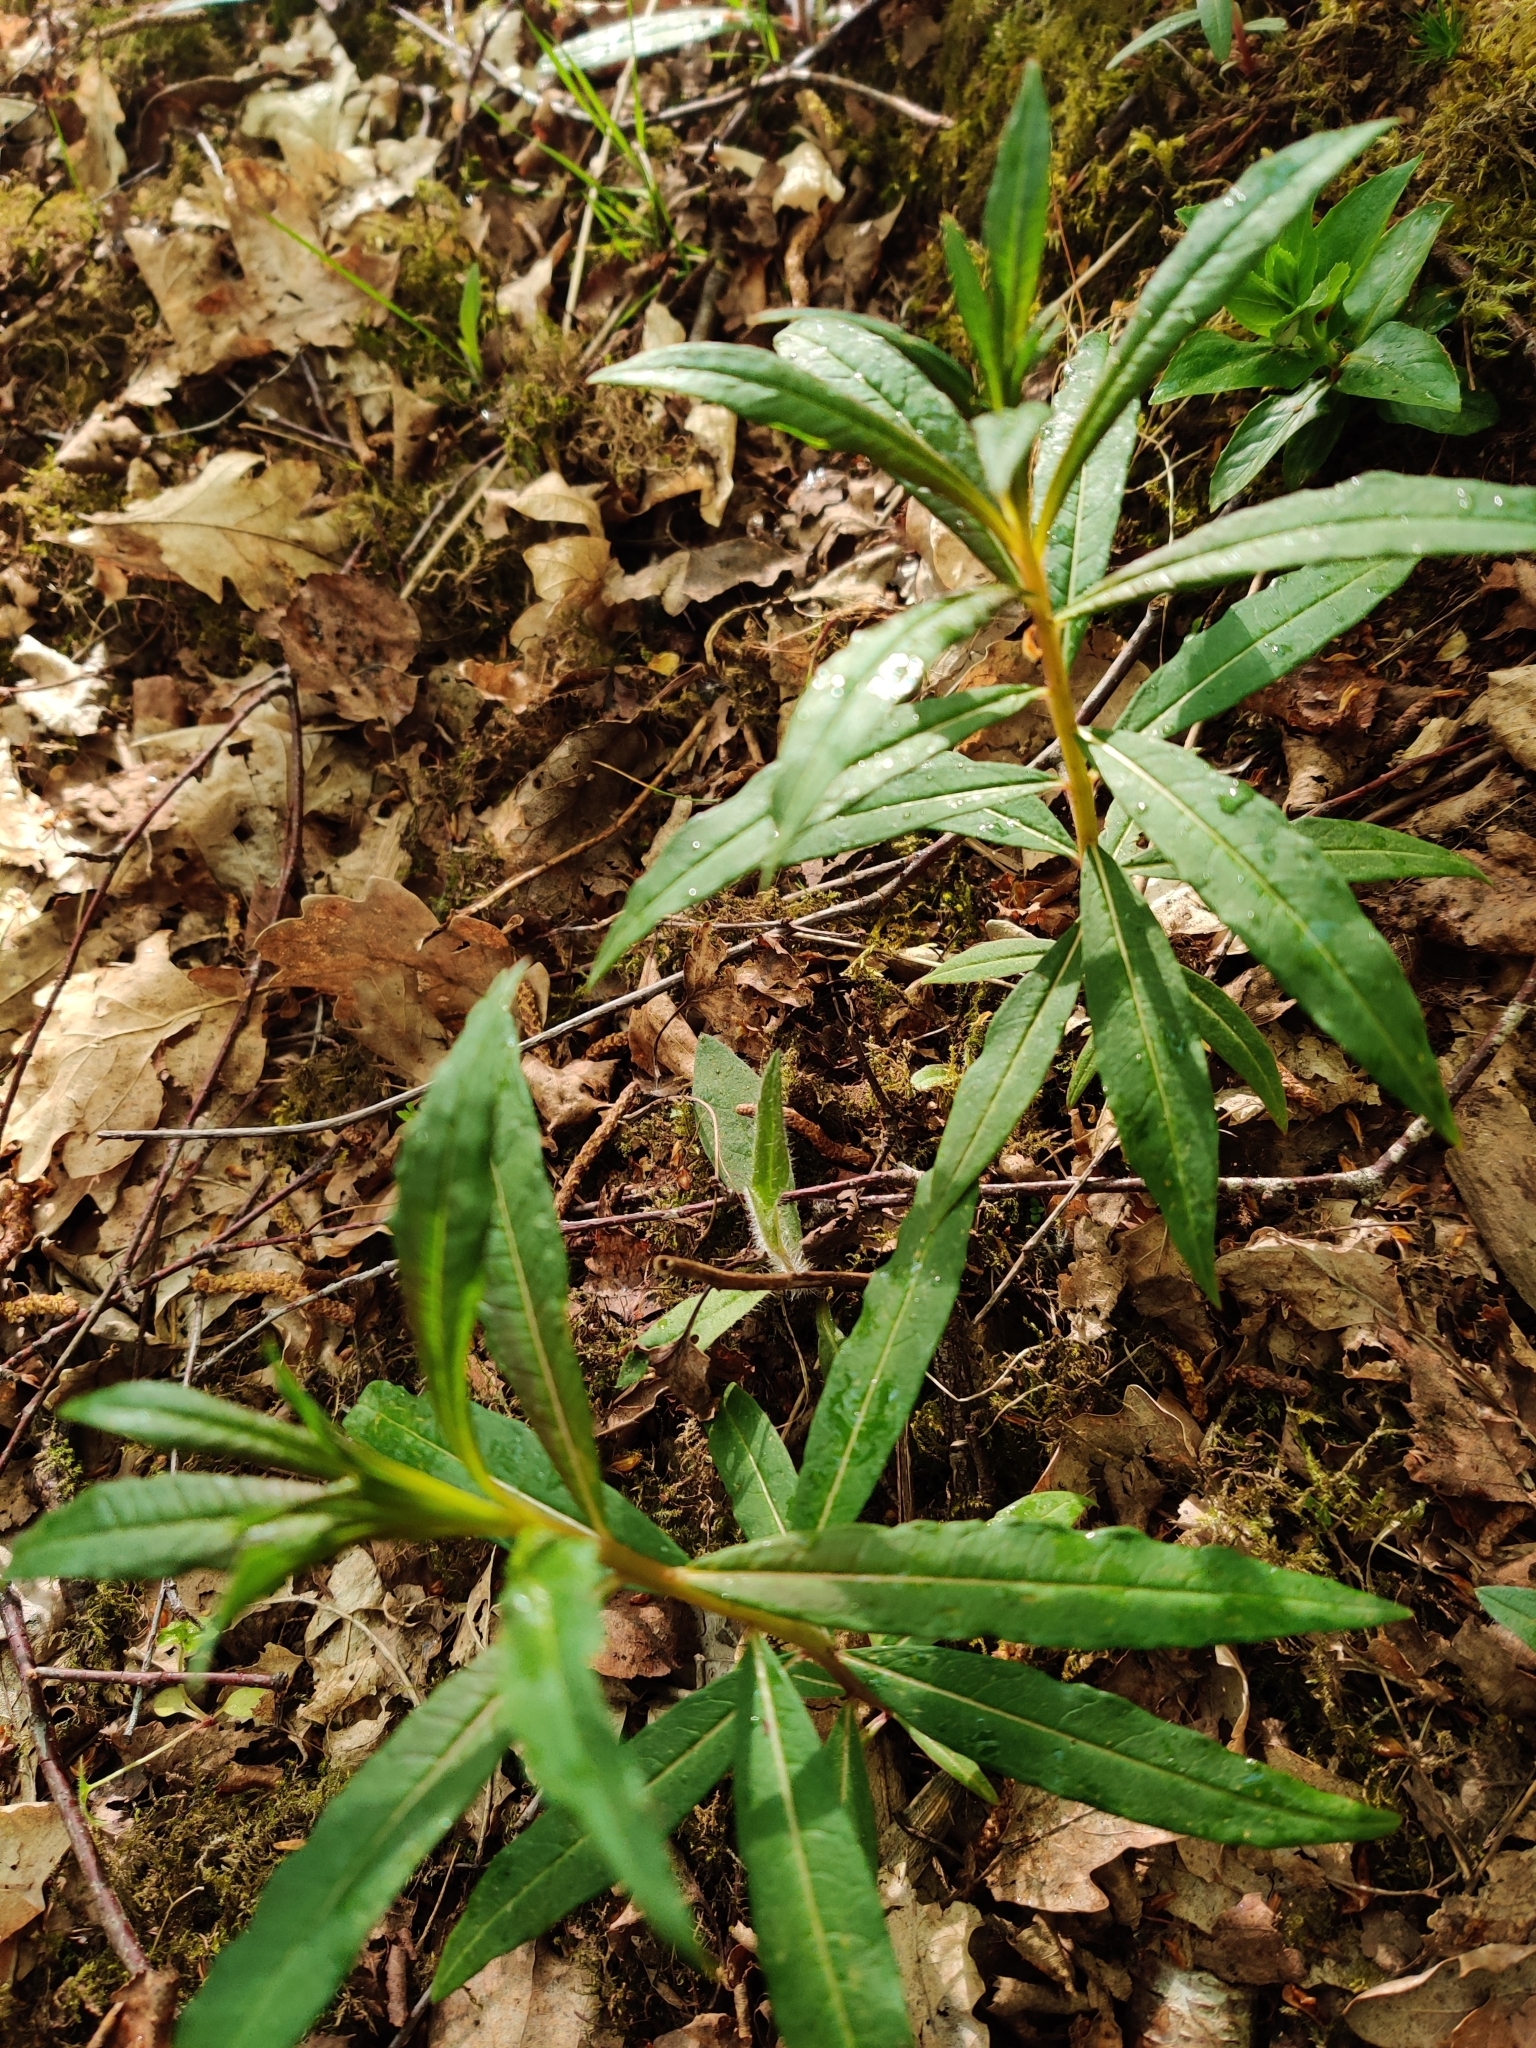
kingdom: Plantae
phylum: Tracheophyta
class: Magnoliopsida
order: Myrtales
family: Onagraceae
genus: Chamaenerion
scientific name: Chamaenerion angustifolium
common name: Fireweed
